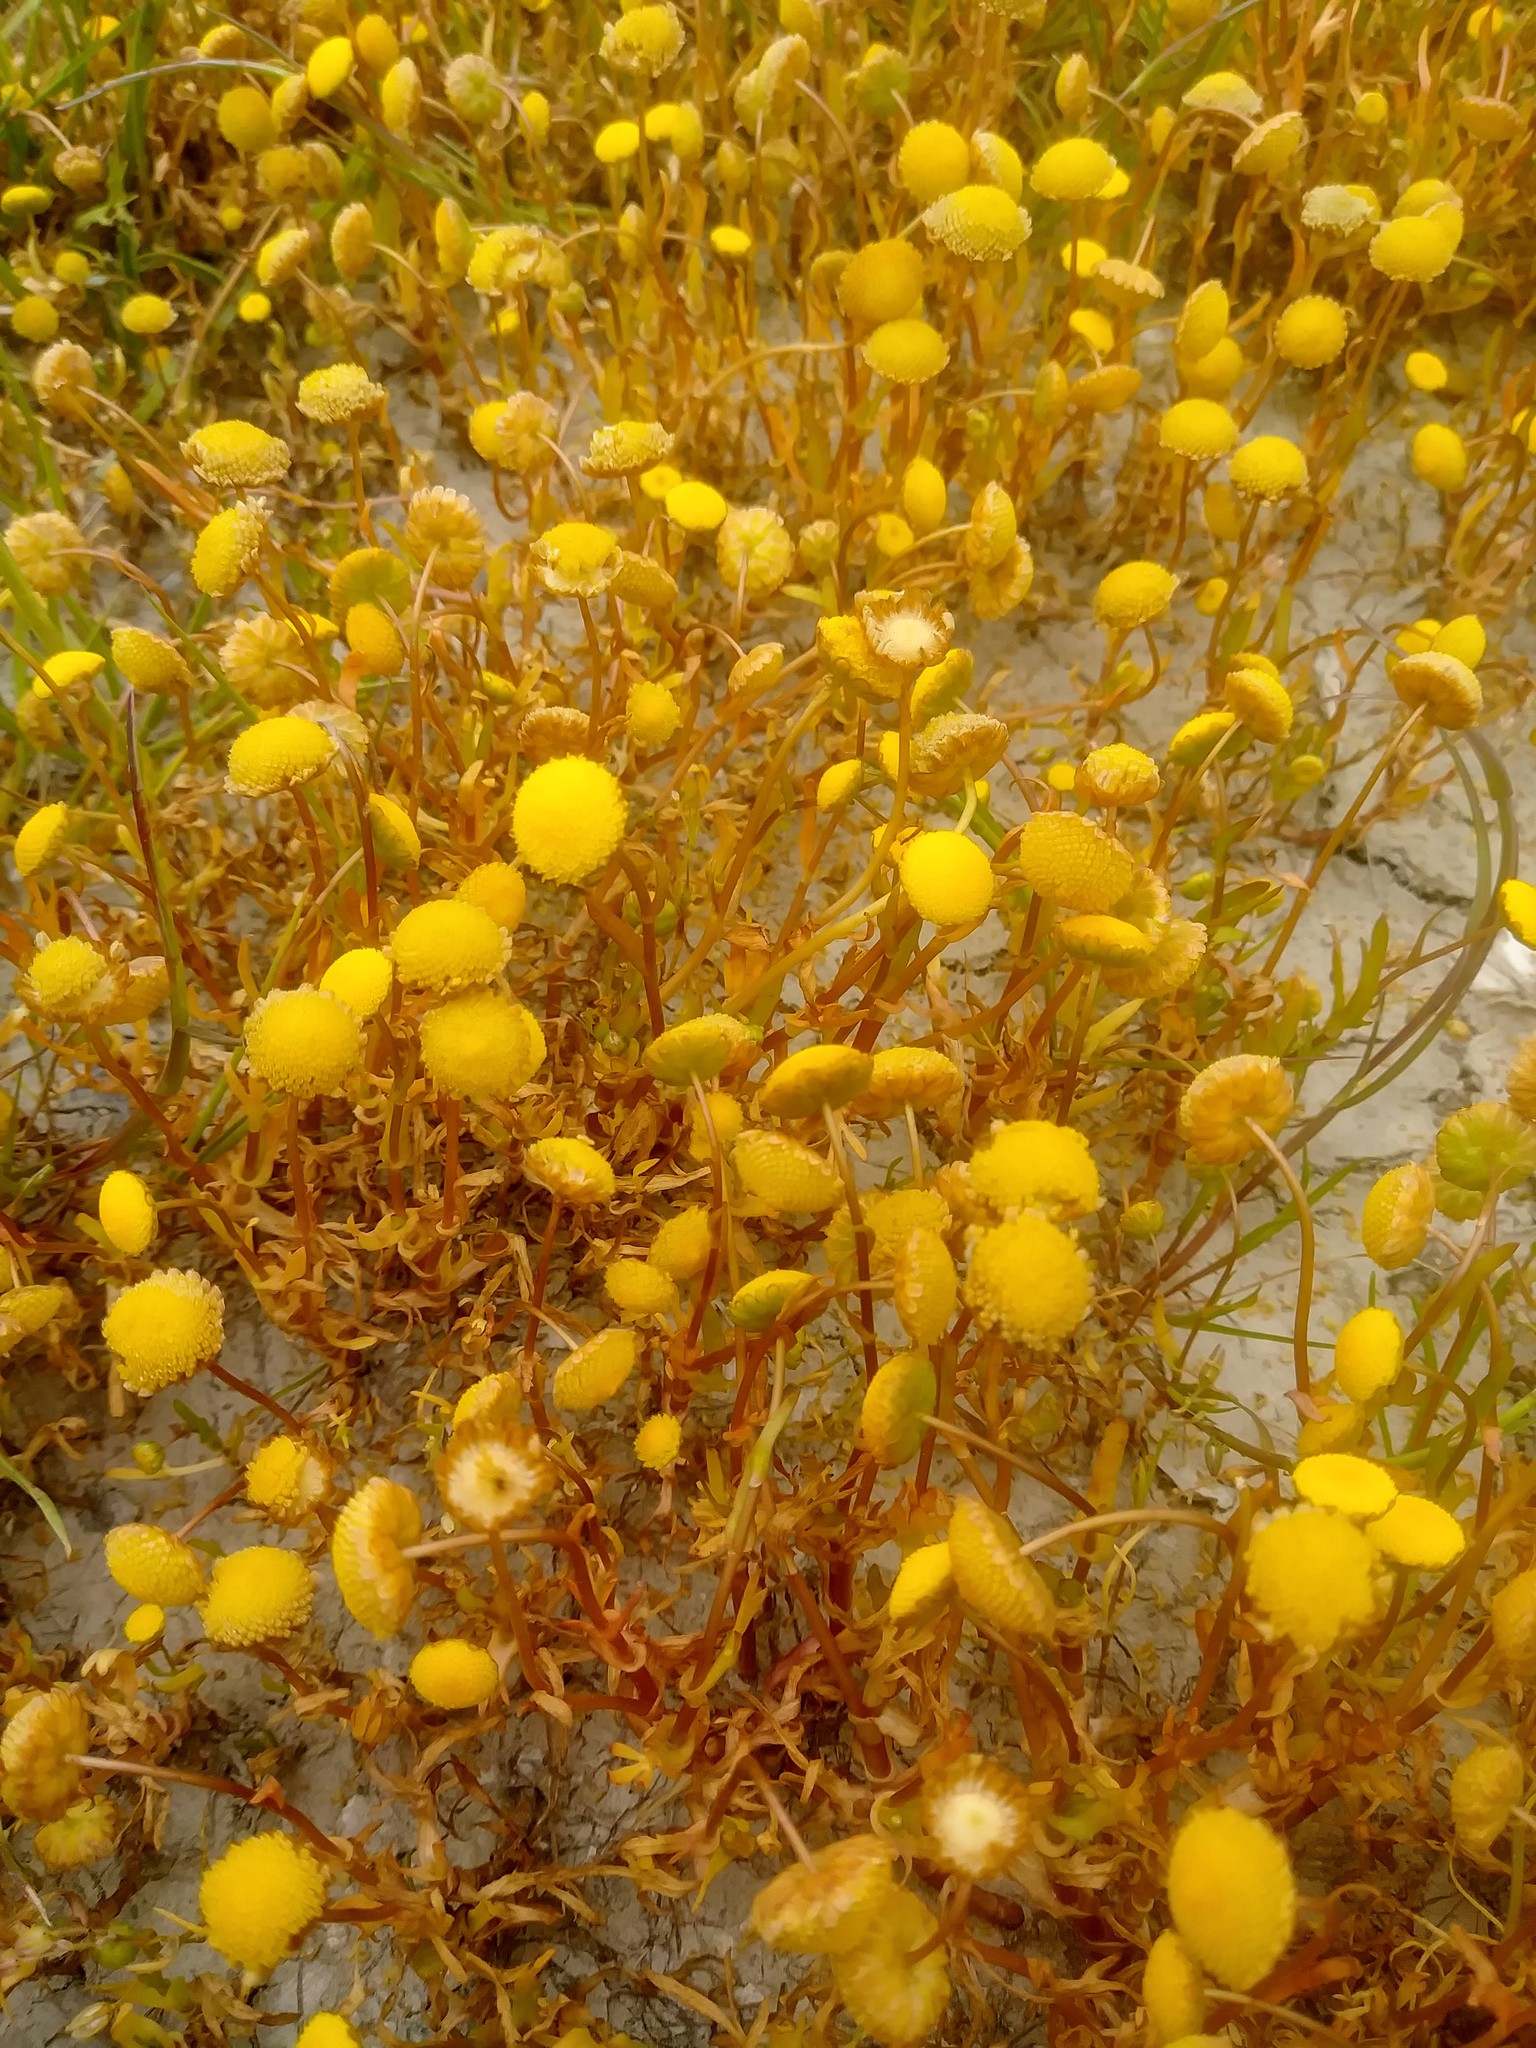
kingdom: Plantae
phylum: Tracheophyta
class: Magnoliopsida
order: Asterales
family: Asteraceae
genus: Cotula
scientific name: Cotula coronopifolia
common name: Buttonweed
